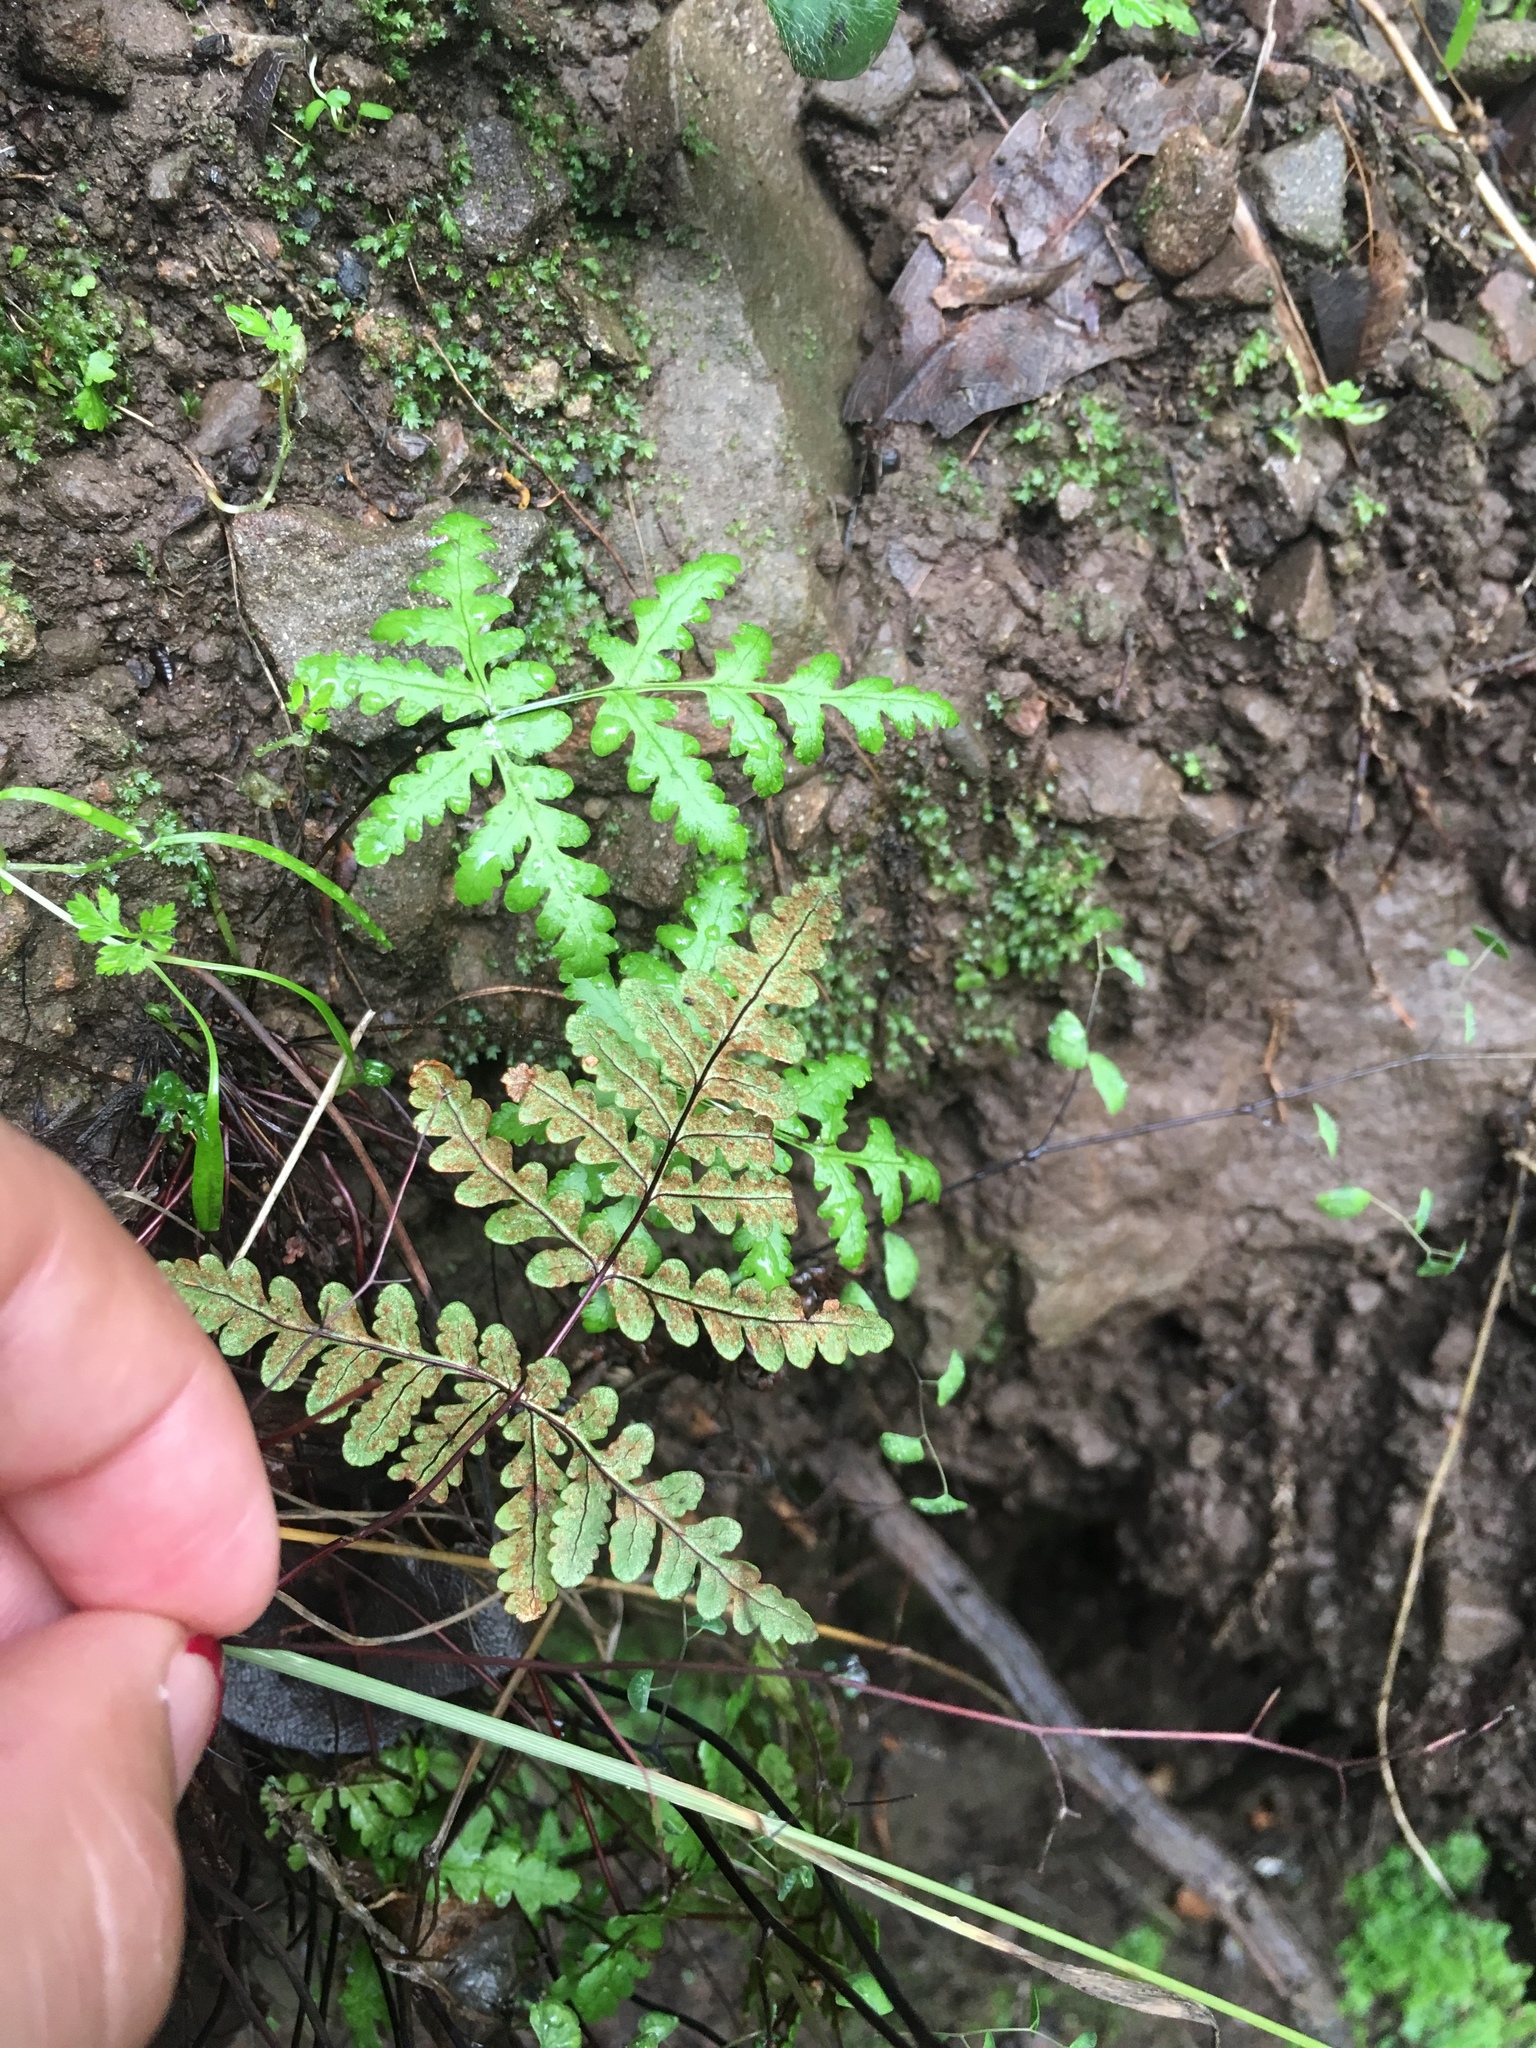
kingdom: Plantae
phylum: Tracheophyta
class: Polypodiopsida
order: Polypodiales
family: Pteridaceae
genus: Pentagramma
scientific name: Pentagramma triangularis
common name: Gold fern
